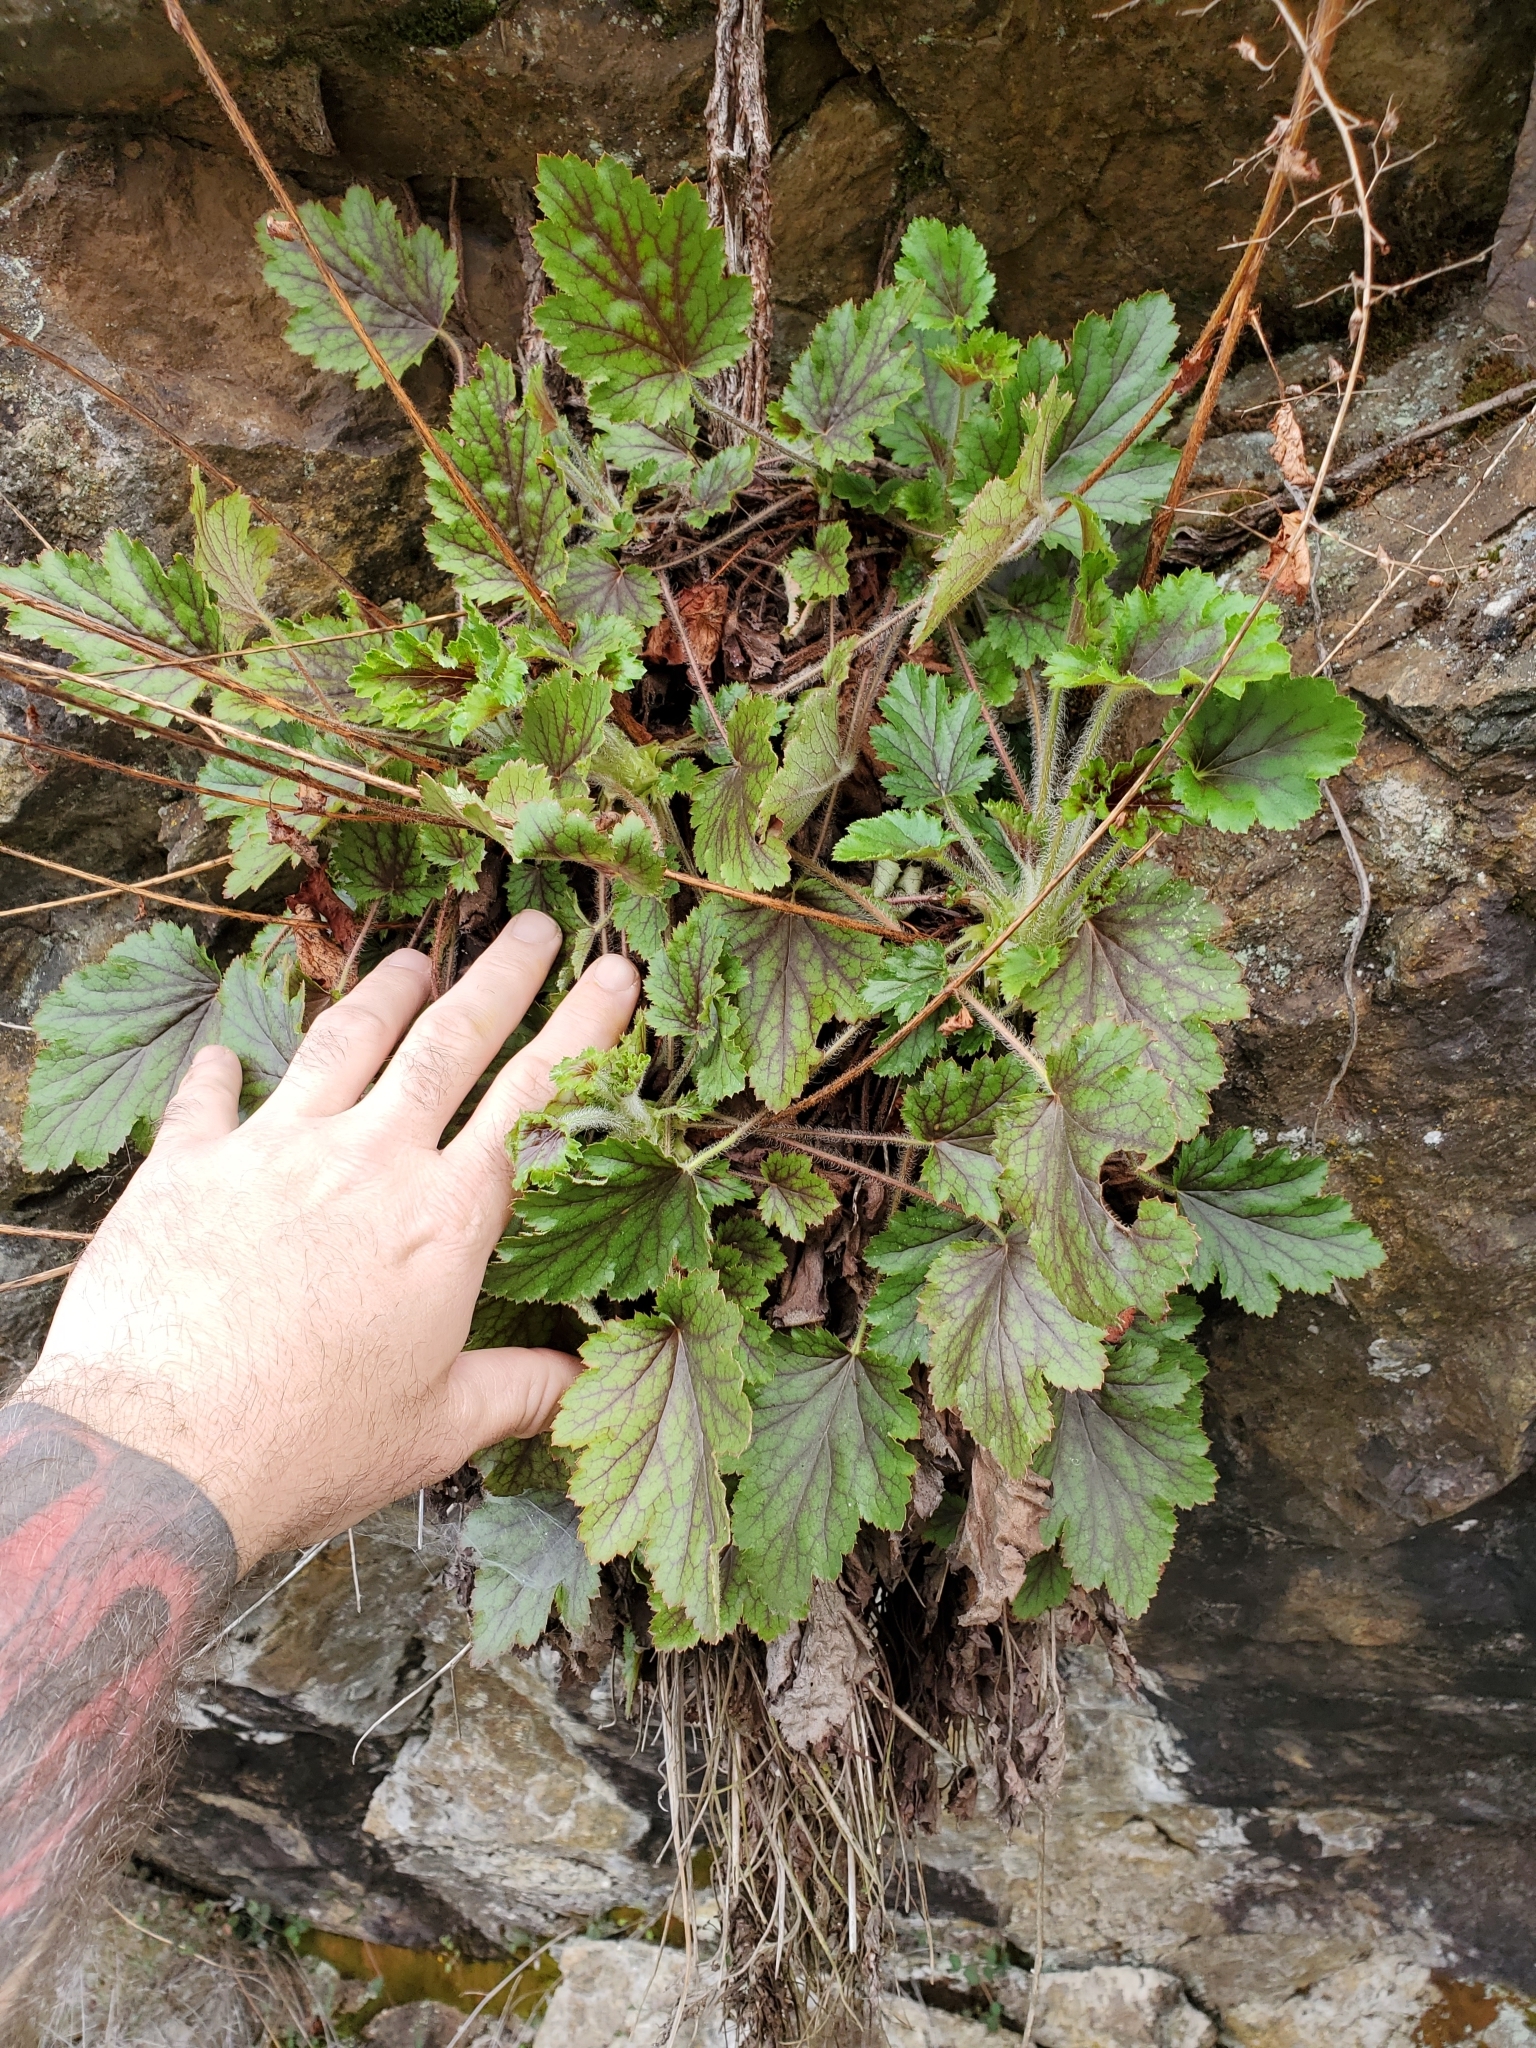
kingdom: Plantae
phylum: Tracheophyta
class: Magnoliopsida
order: Saxifragales
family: Saxifragaceae
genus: Heuchera
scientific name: Heuchera micrantha
